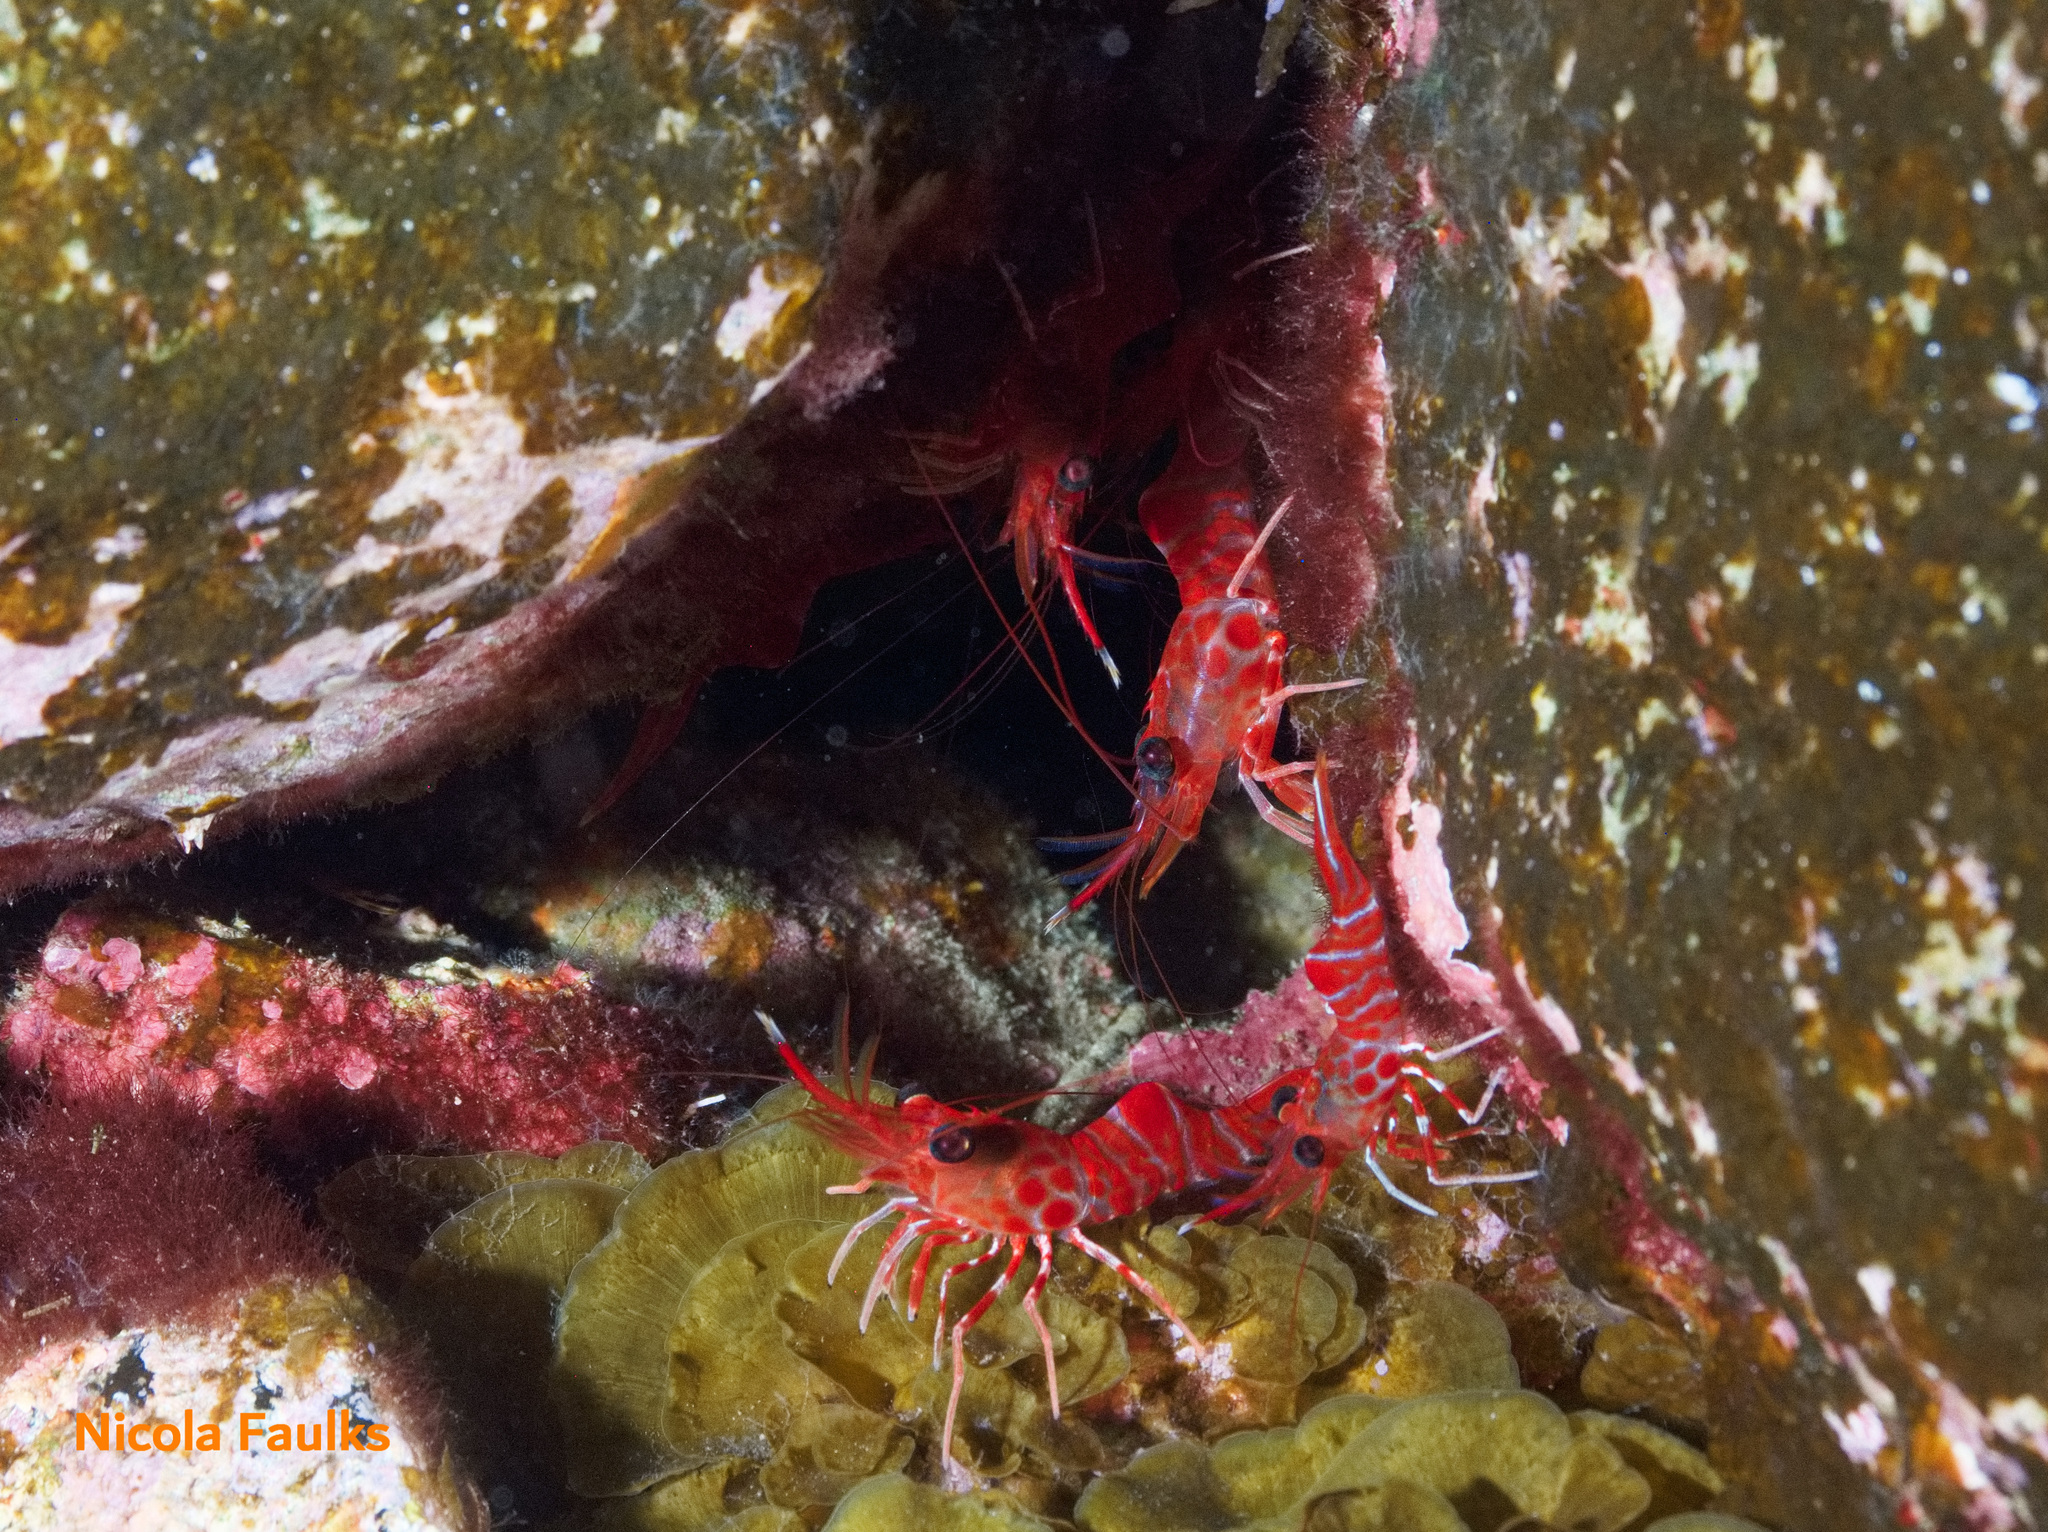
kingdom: Animalia
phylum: Arthropoda
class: Malacostraca
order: Decapoda
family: Rhynchocinetidae
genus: Cinetorhynchus
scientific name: Cinetorhynchus rigens
